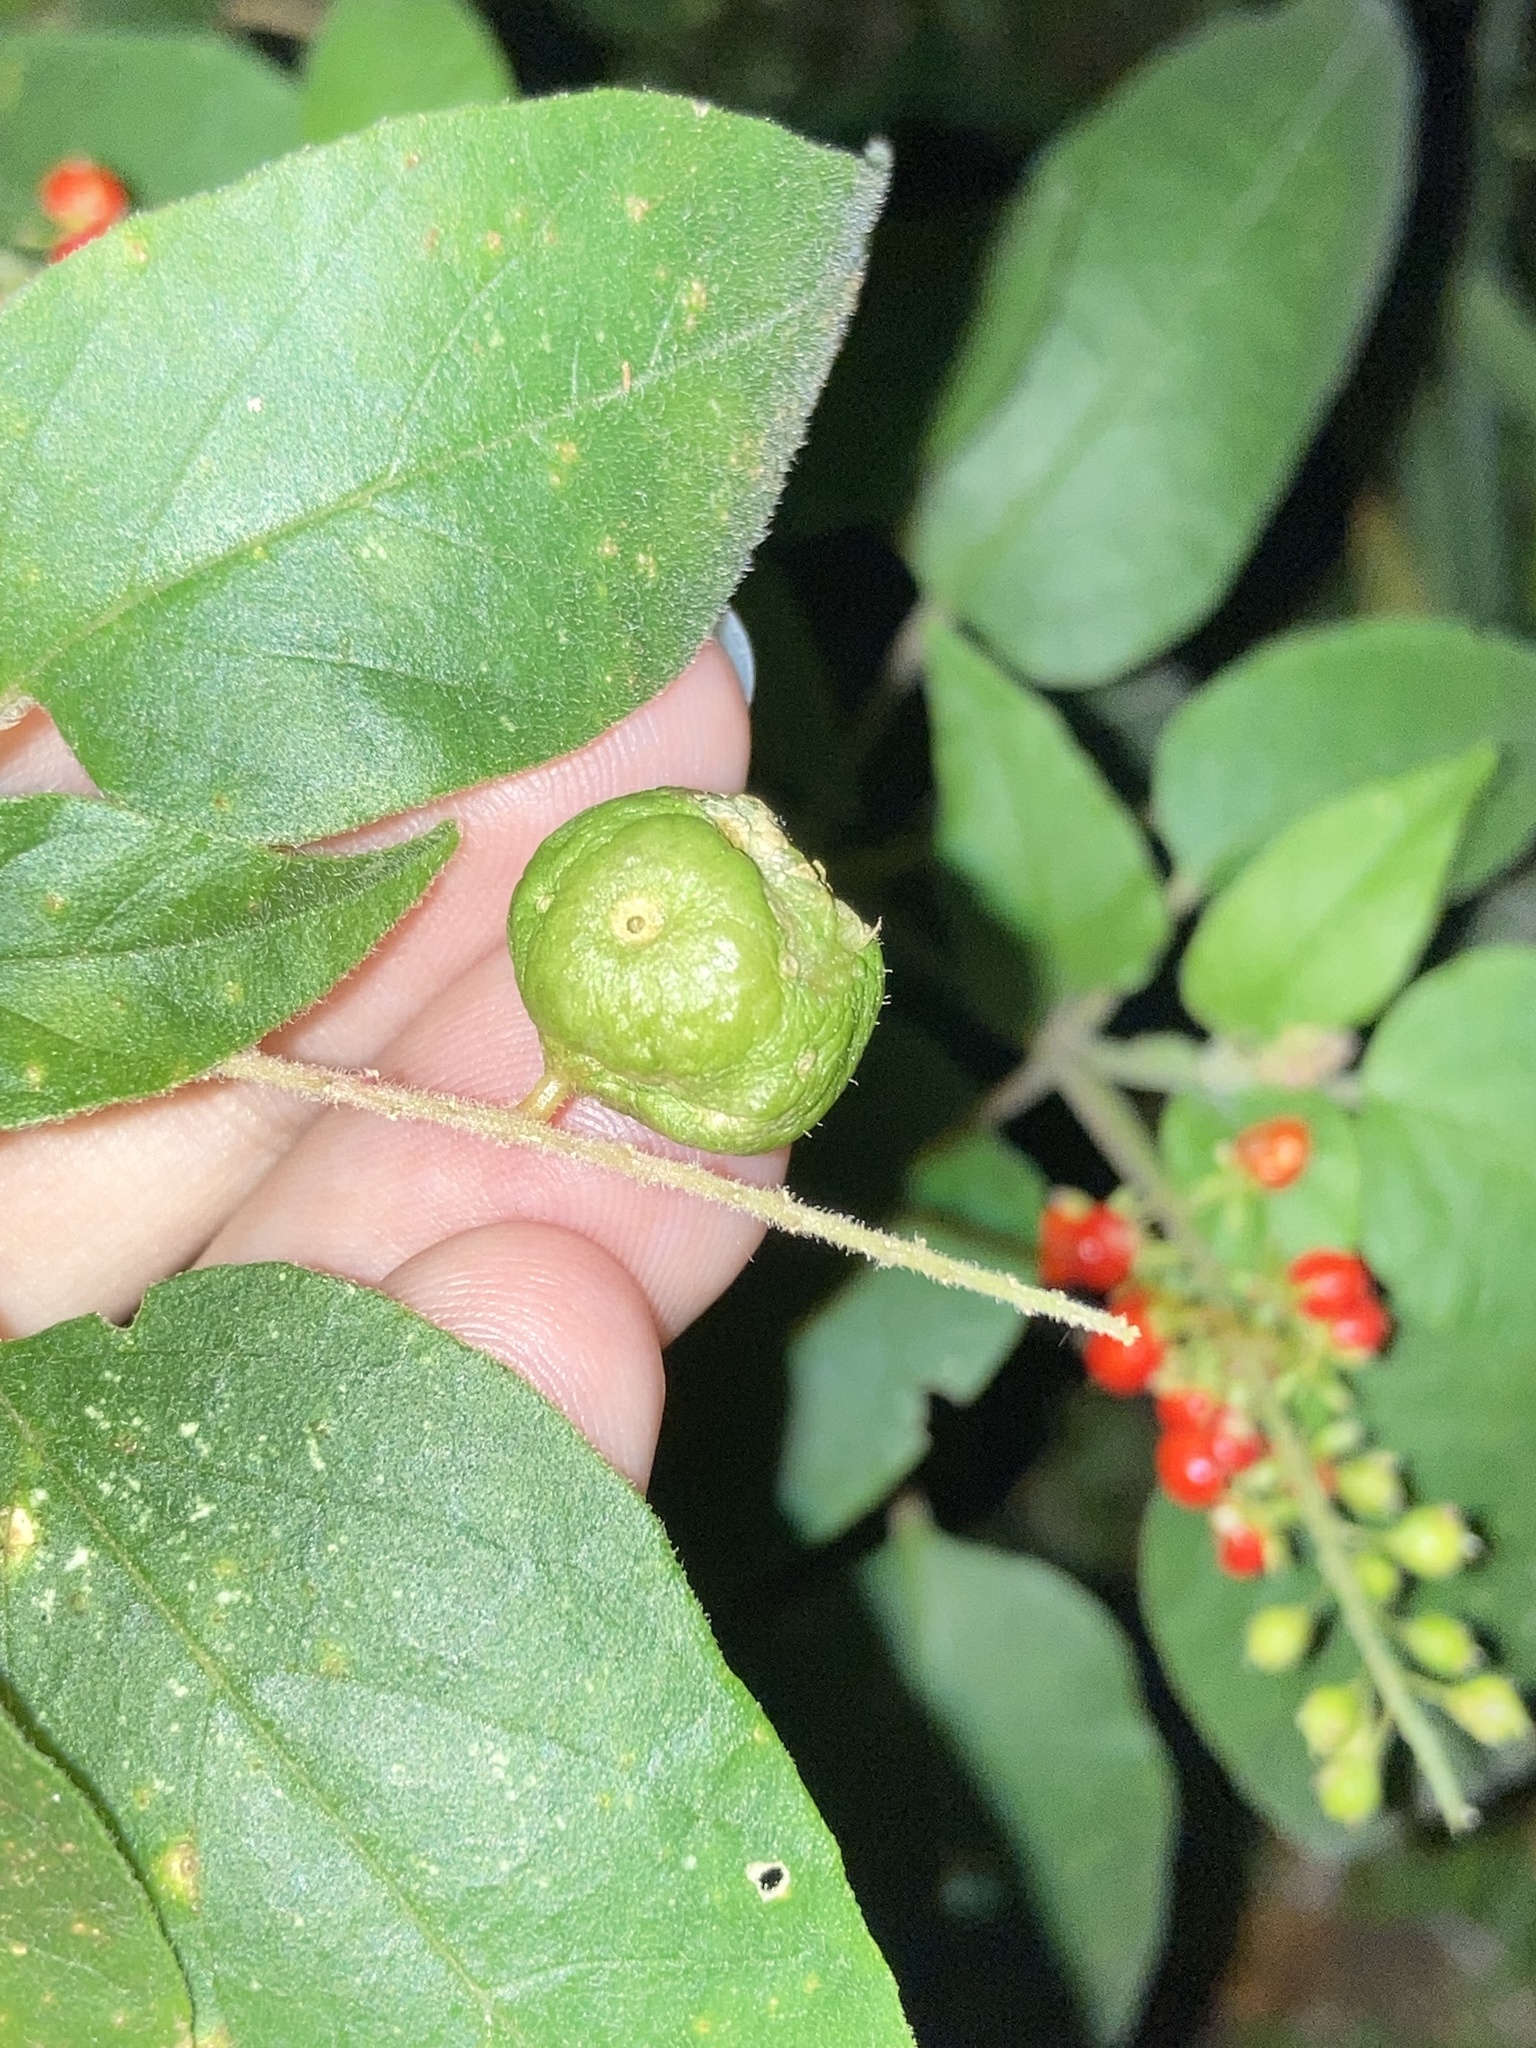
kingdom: Plantae
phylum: Tracheophyta
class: Magnoliopsida
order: Caryophyllales
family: Phytolaccaceae
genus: Rivina
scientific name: Rivina humilis
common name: Rougeplant
